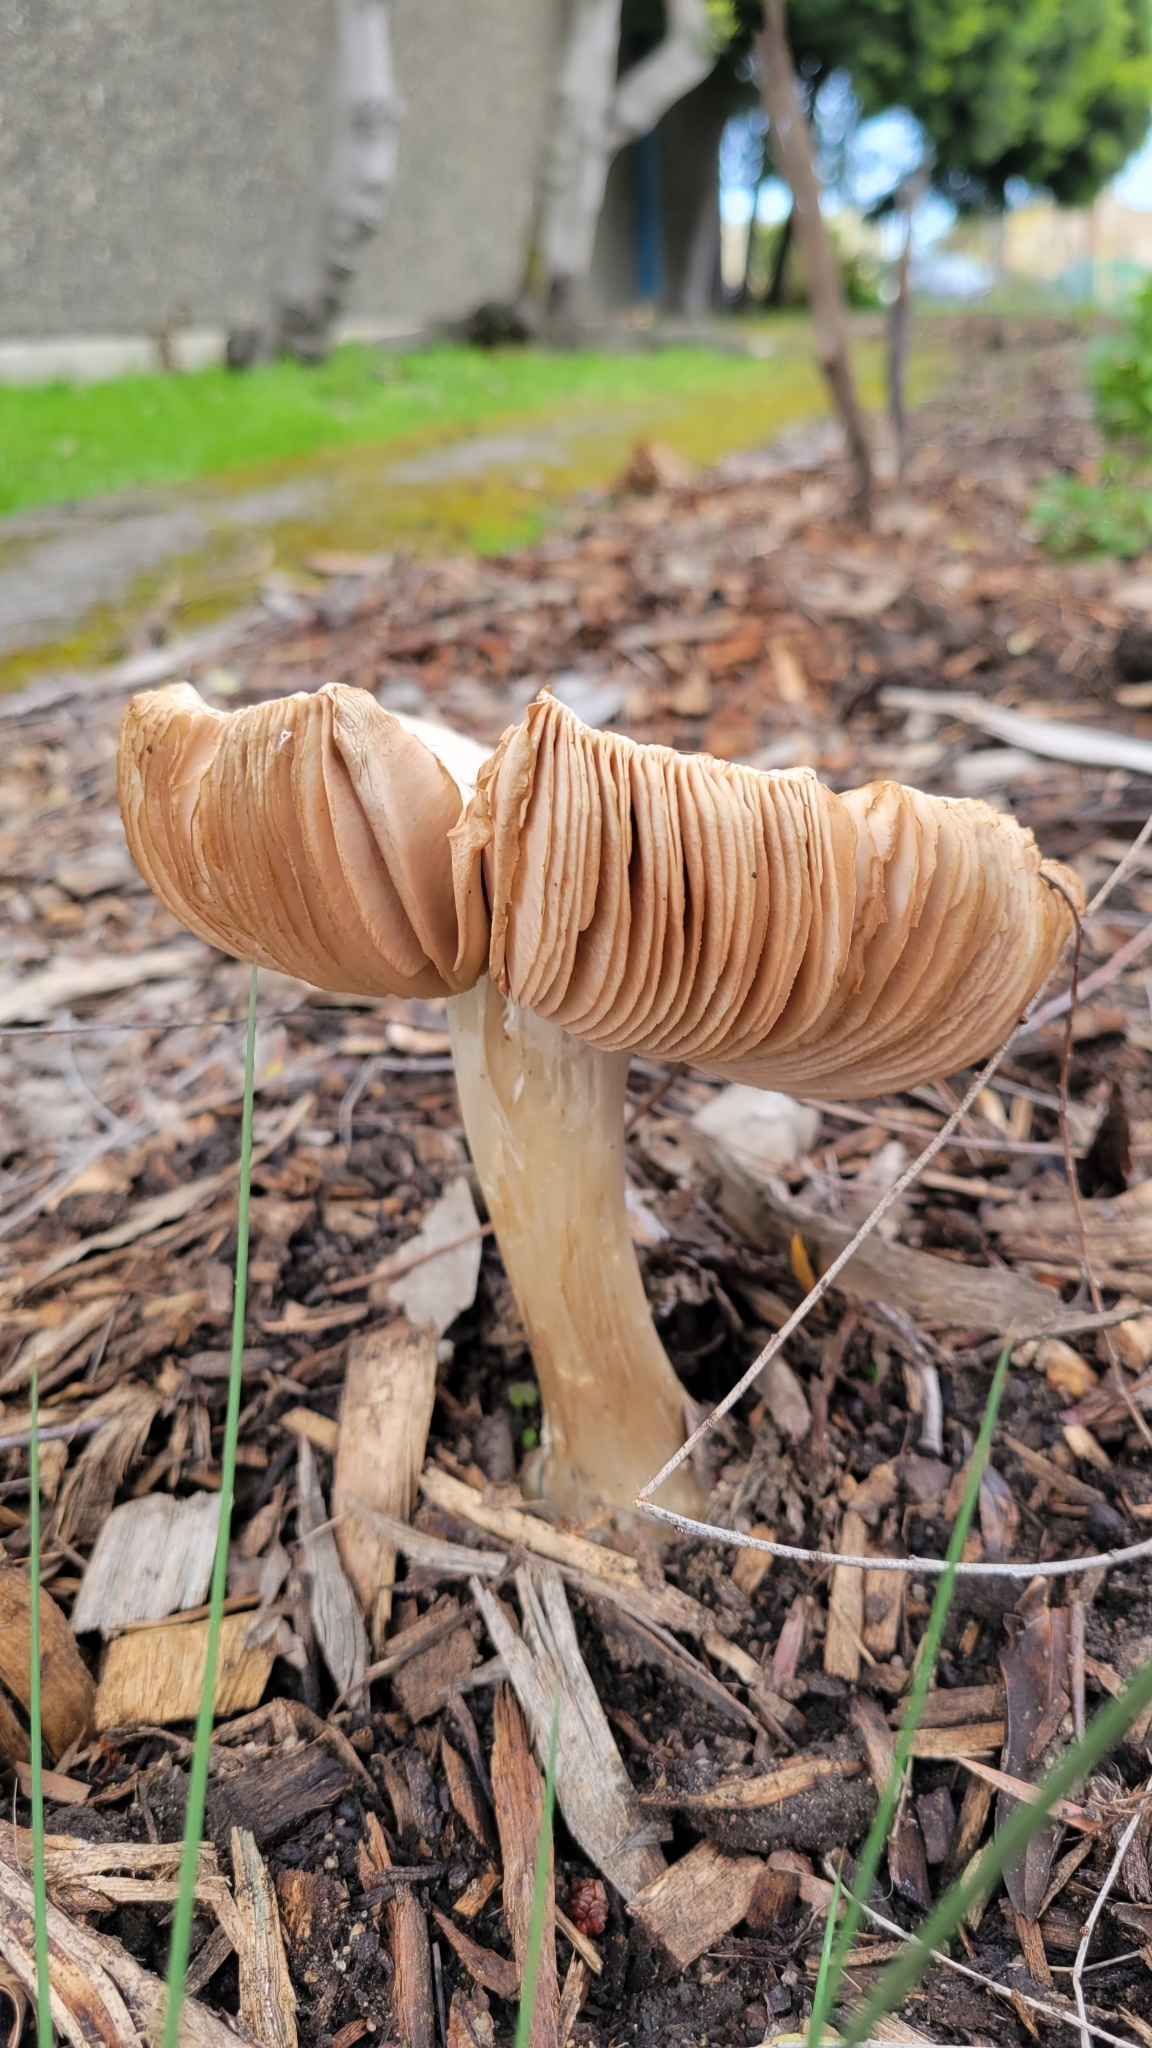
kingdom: Fungi
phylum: Basidiomycota
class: Agaricomycetes
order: Agaricales
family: Pluteaceae
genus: Volvopluteus
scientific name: Volvopluteus gloiocephalus
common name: Stubble rosegill
